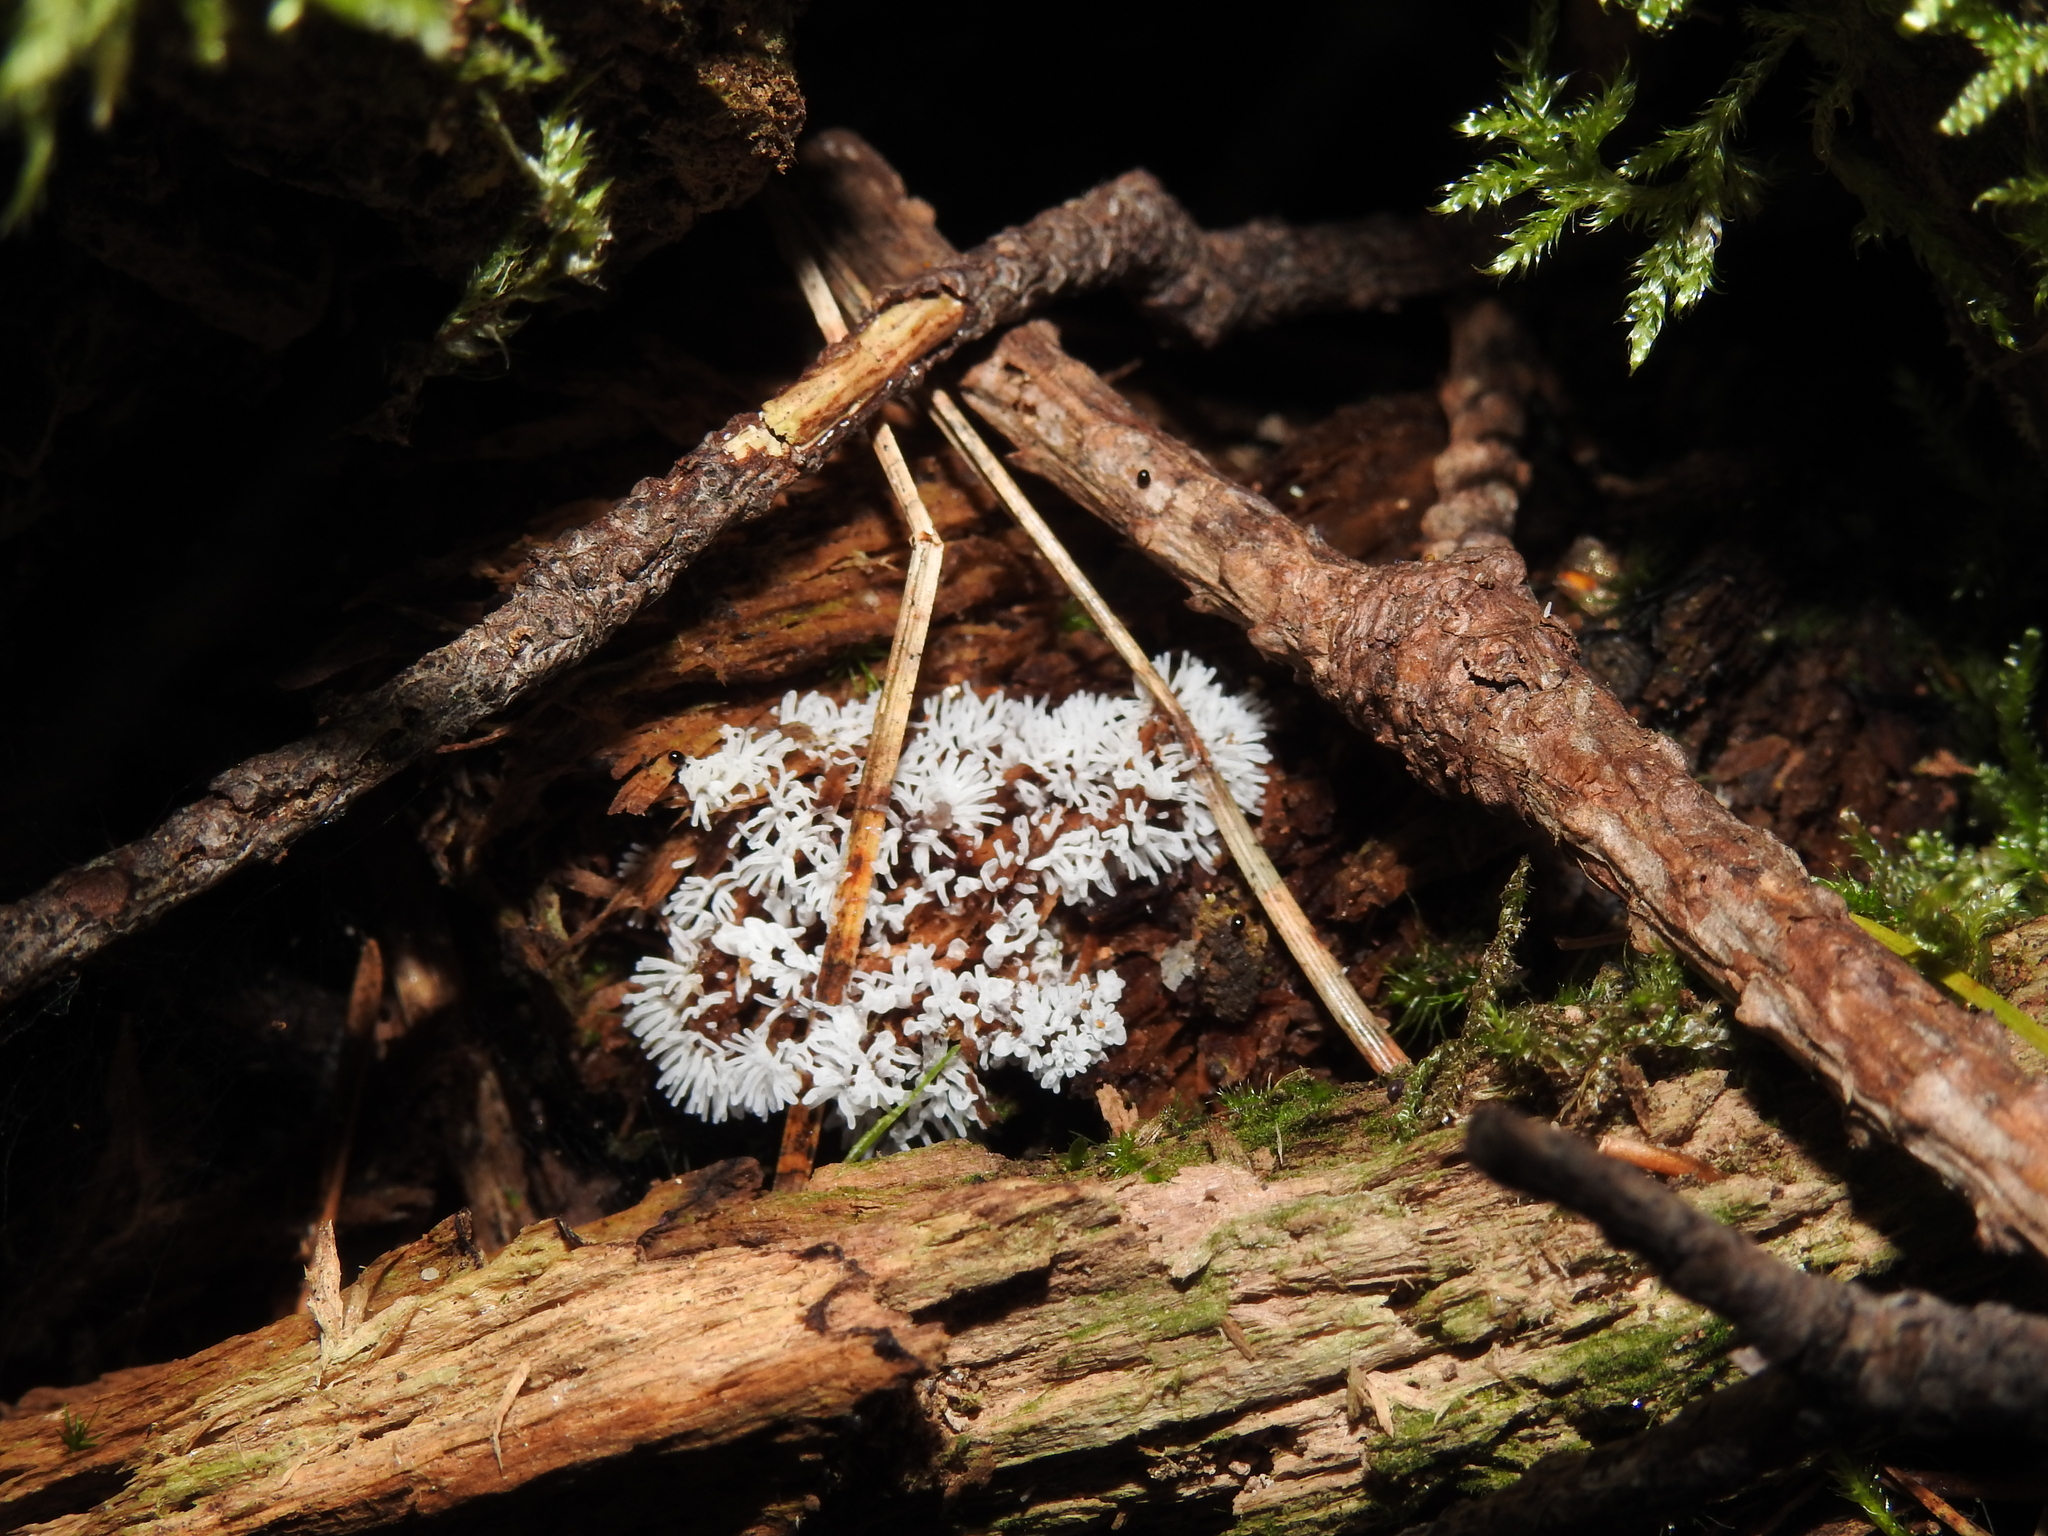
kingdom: Protozoa
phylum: Mycetozoa
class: Protosteliomycetes
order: Ceratiomyxales
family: Ceratiomyxaceae
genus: Ceratiomyxa
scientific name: Ceratiomyxa fruticulosa
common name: Honeycomb coral slime mold
